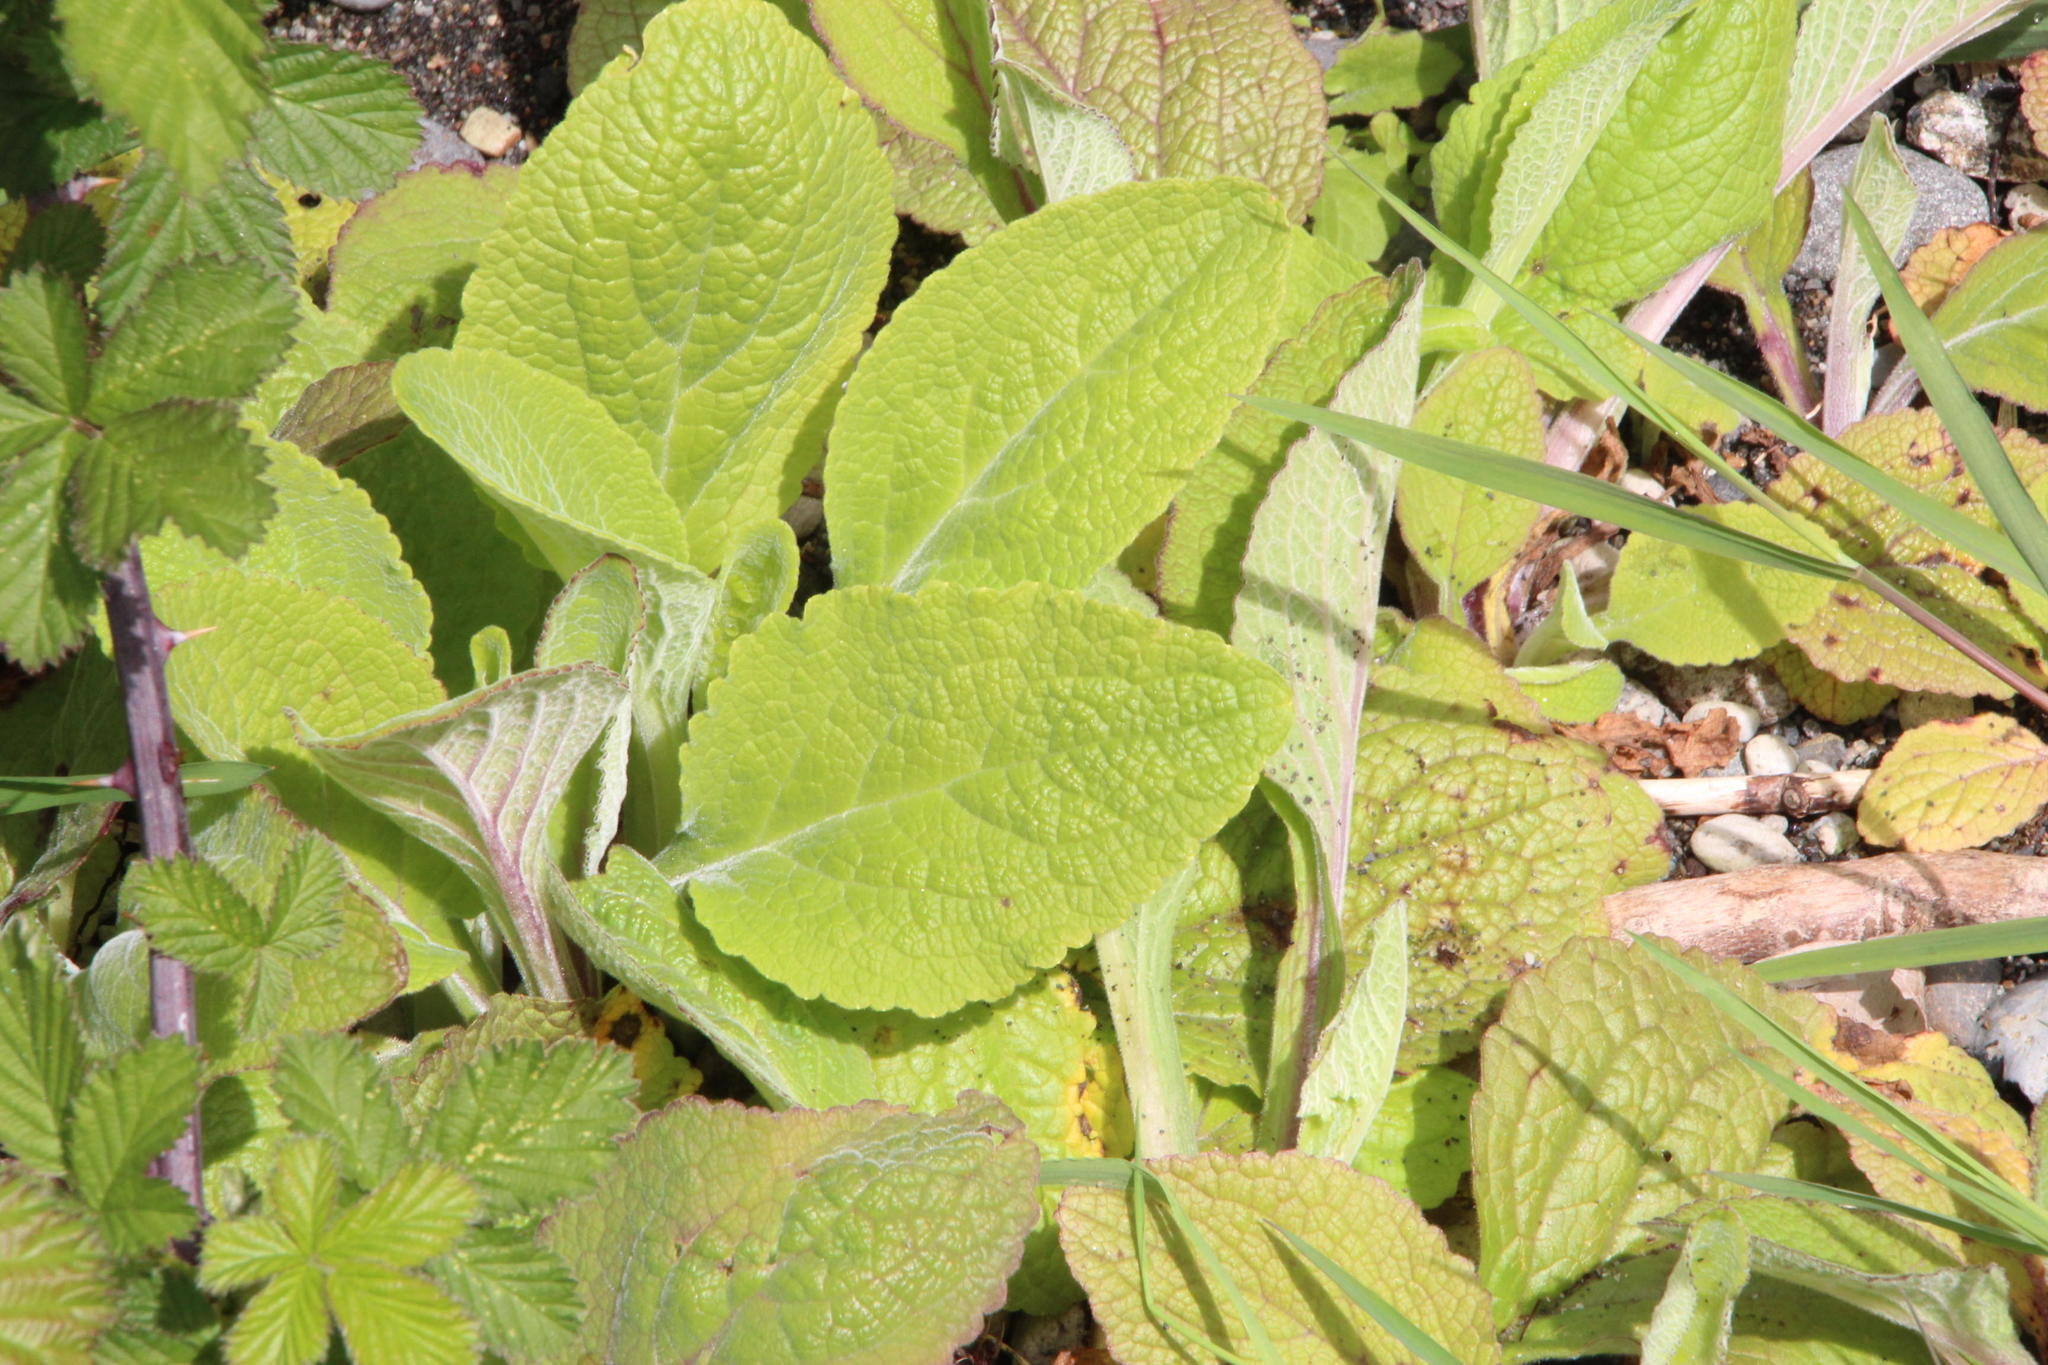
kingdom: Plantae
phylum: Tracheophyta
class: Magnoliopsida
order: Lamiales
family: Plantaginaceae
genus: Digitalis
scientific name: Digitalis purpurea
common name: Foxglove
